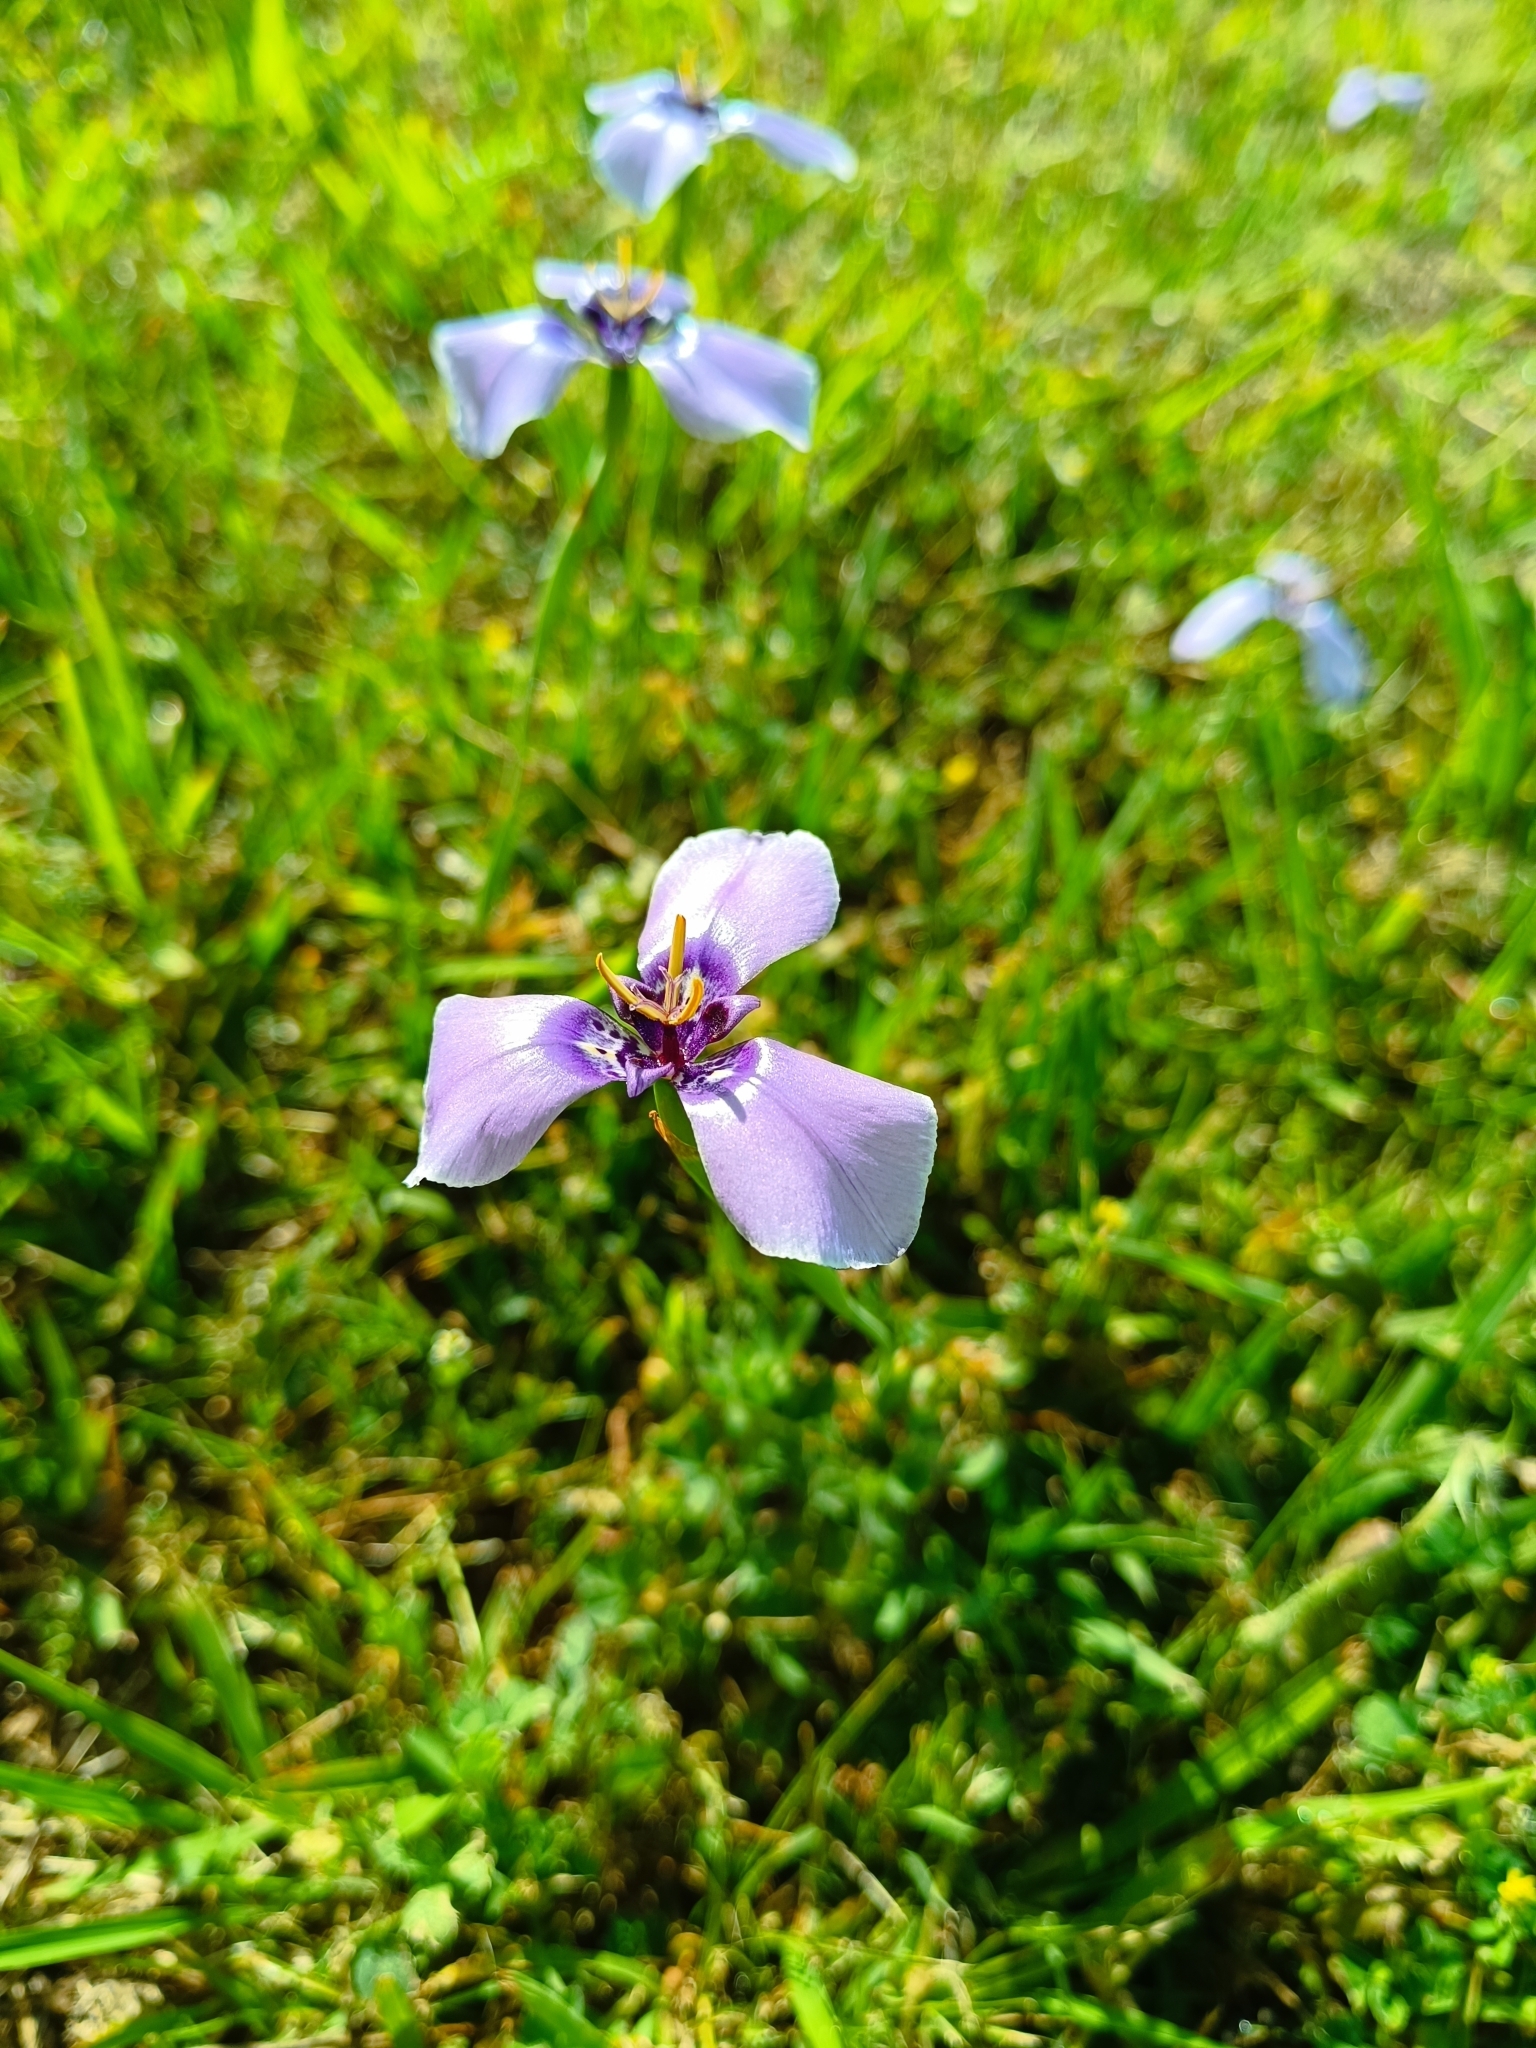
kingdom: Plantae
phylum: Tracheophyta
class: Liliopsida
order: Asparagales
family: Iridaceae
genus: Herbertia
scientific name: Herbertia lahue
